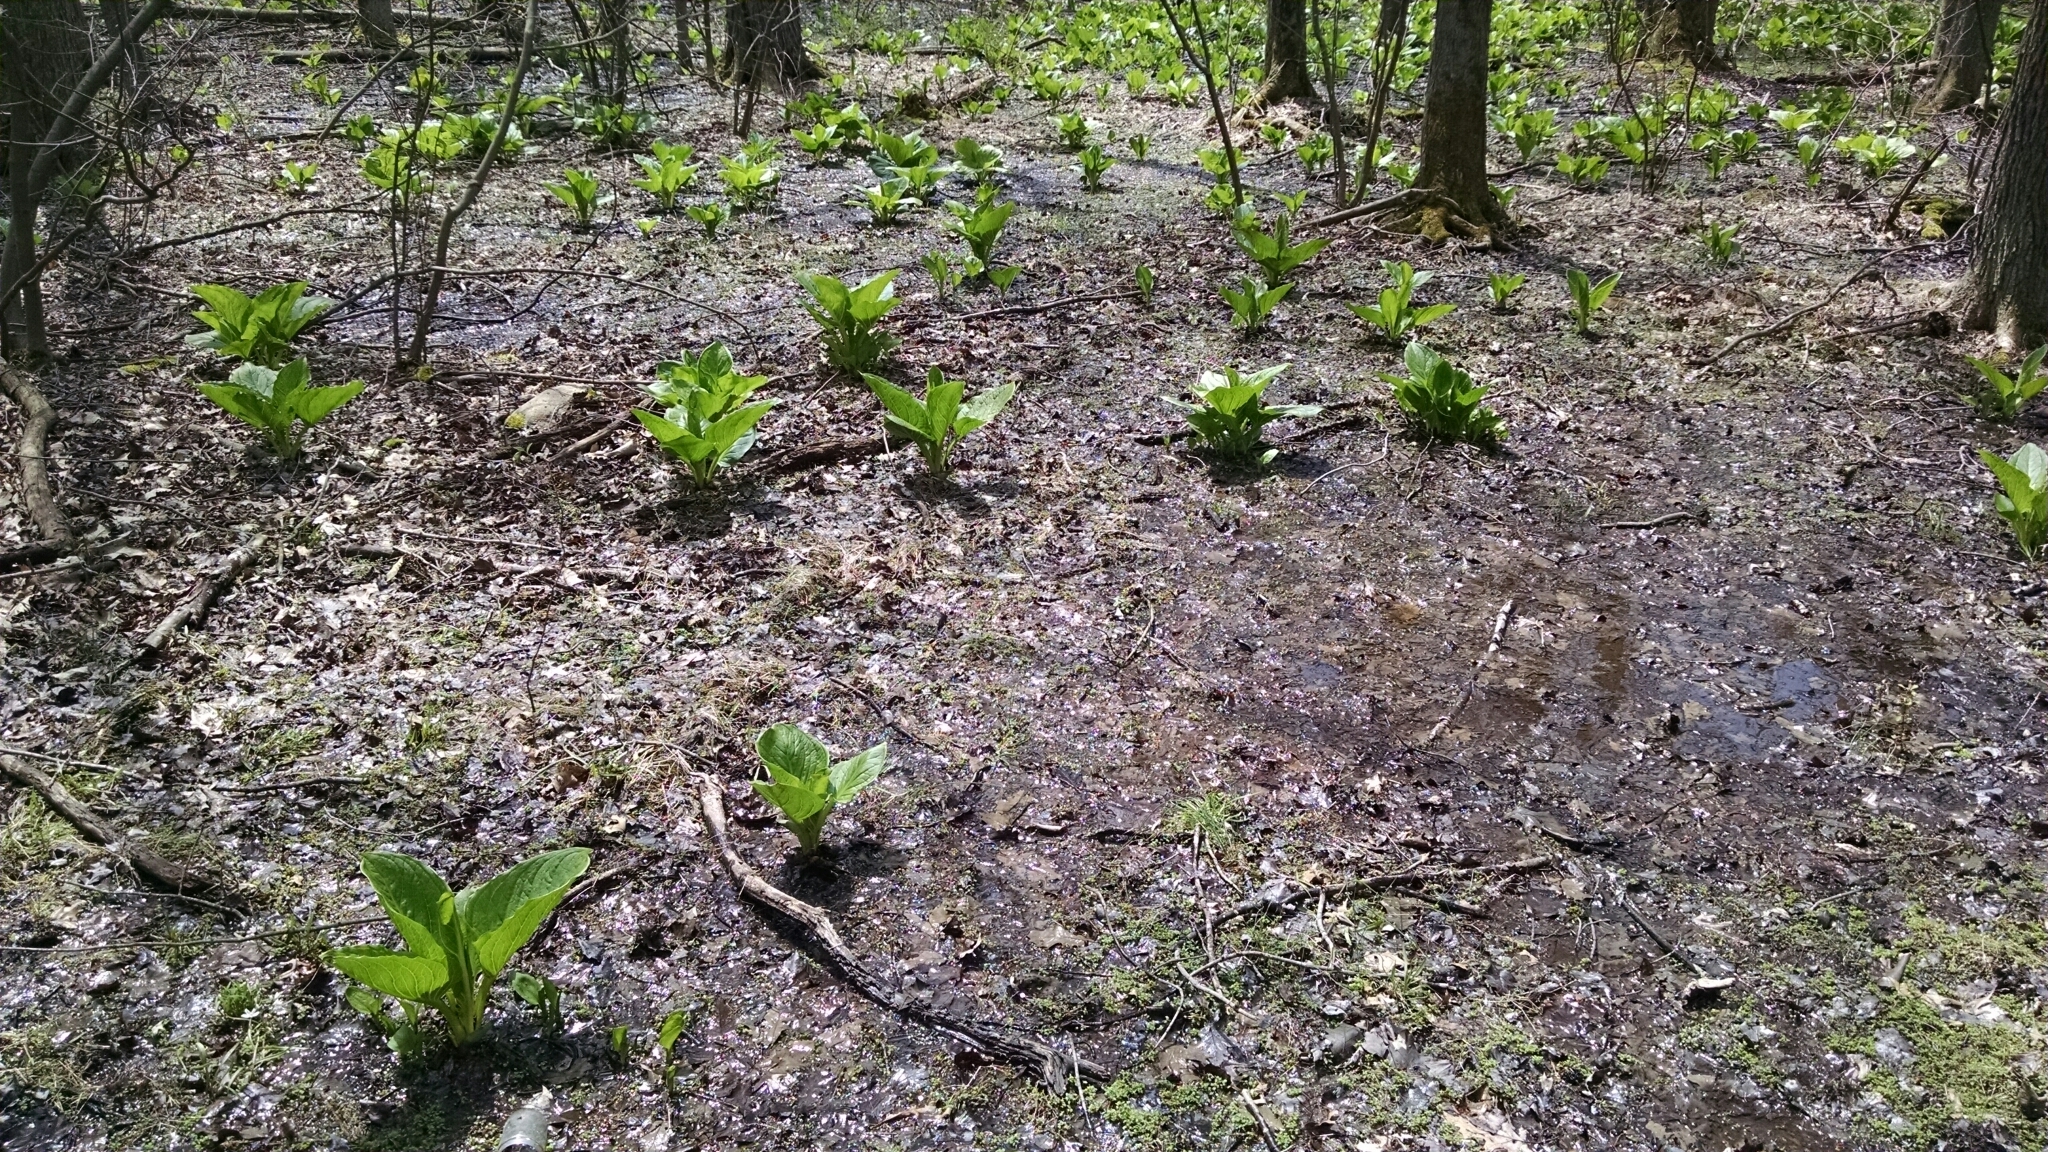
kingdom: Plantae
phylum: Tracheophyta
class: Liliopsida
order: Alismatales
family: Araceae
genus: Symplocarpus
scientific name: Symplocarpus foetidus
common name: Eastern skunk cabbage
